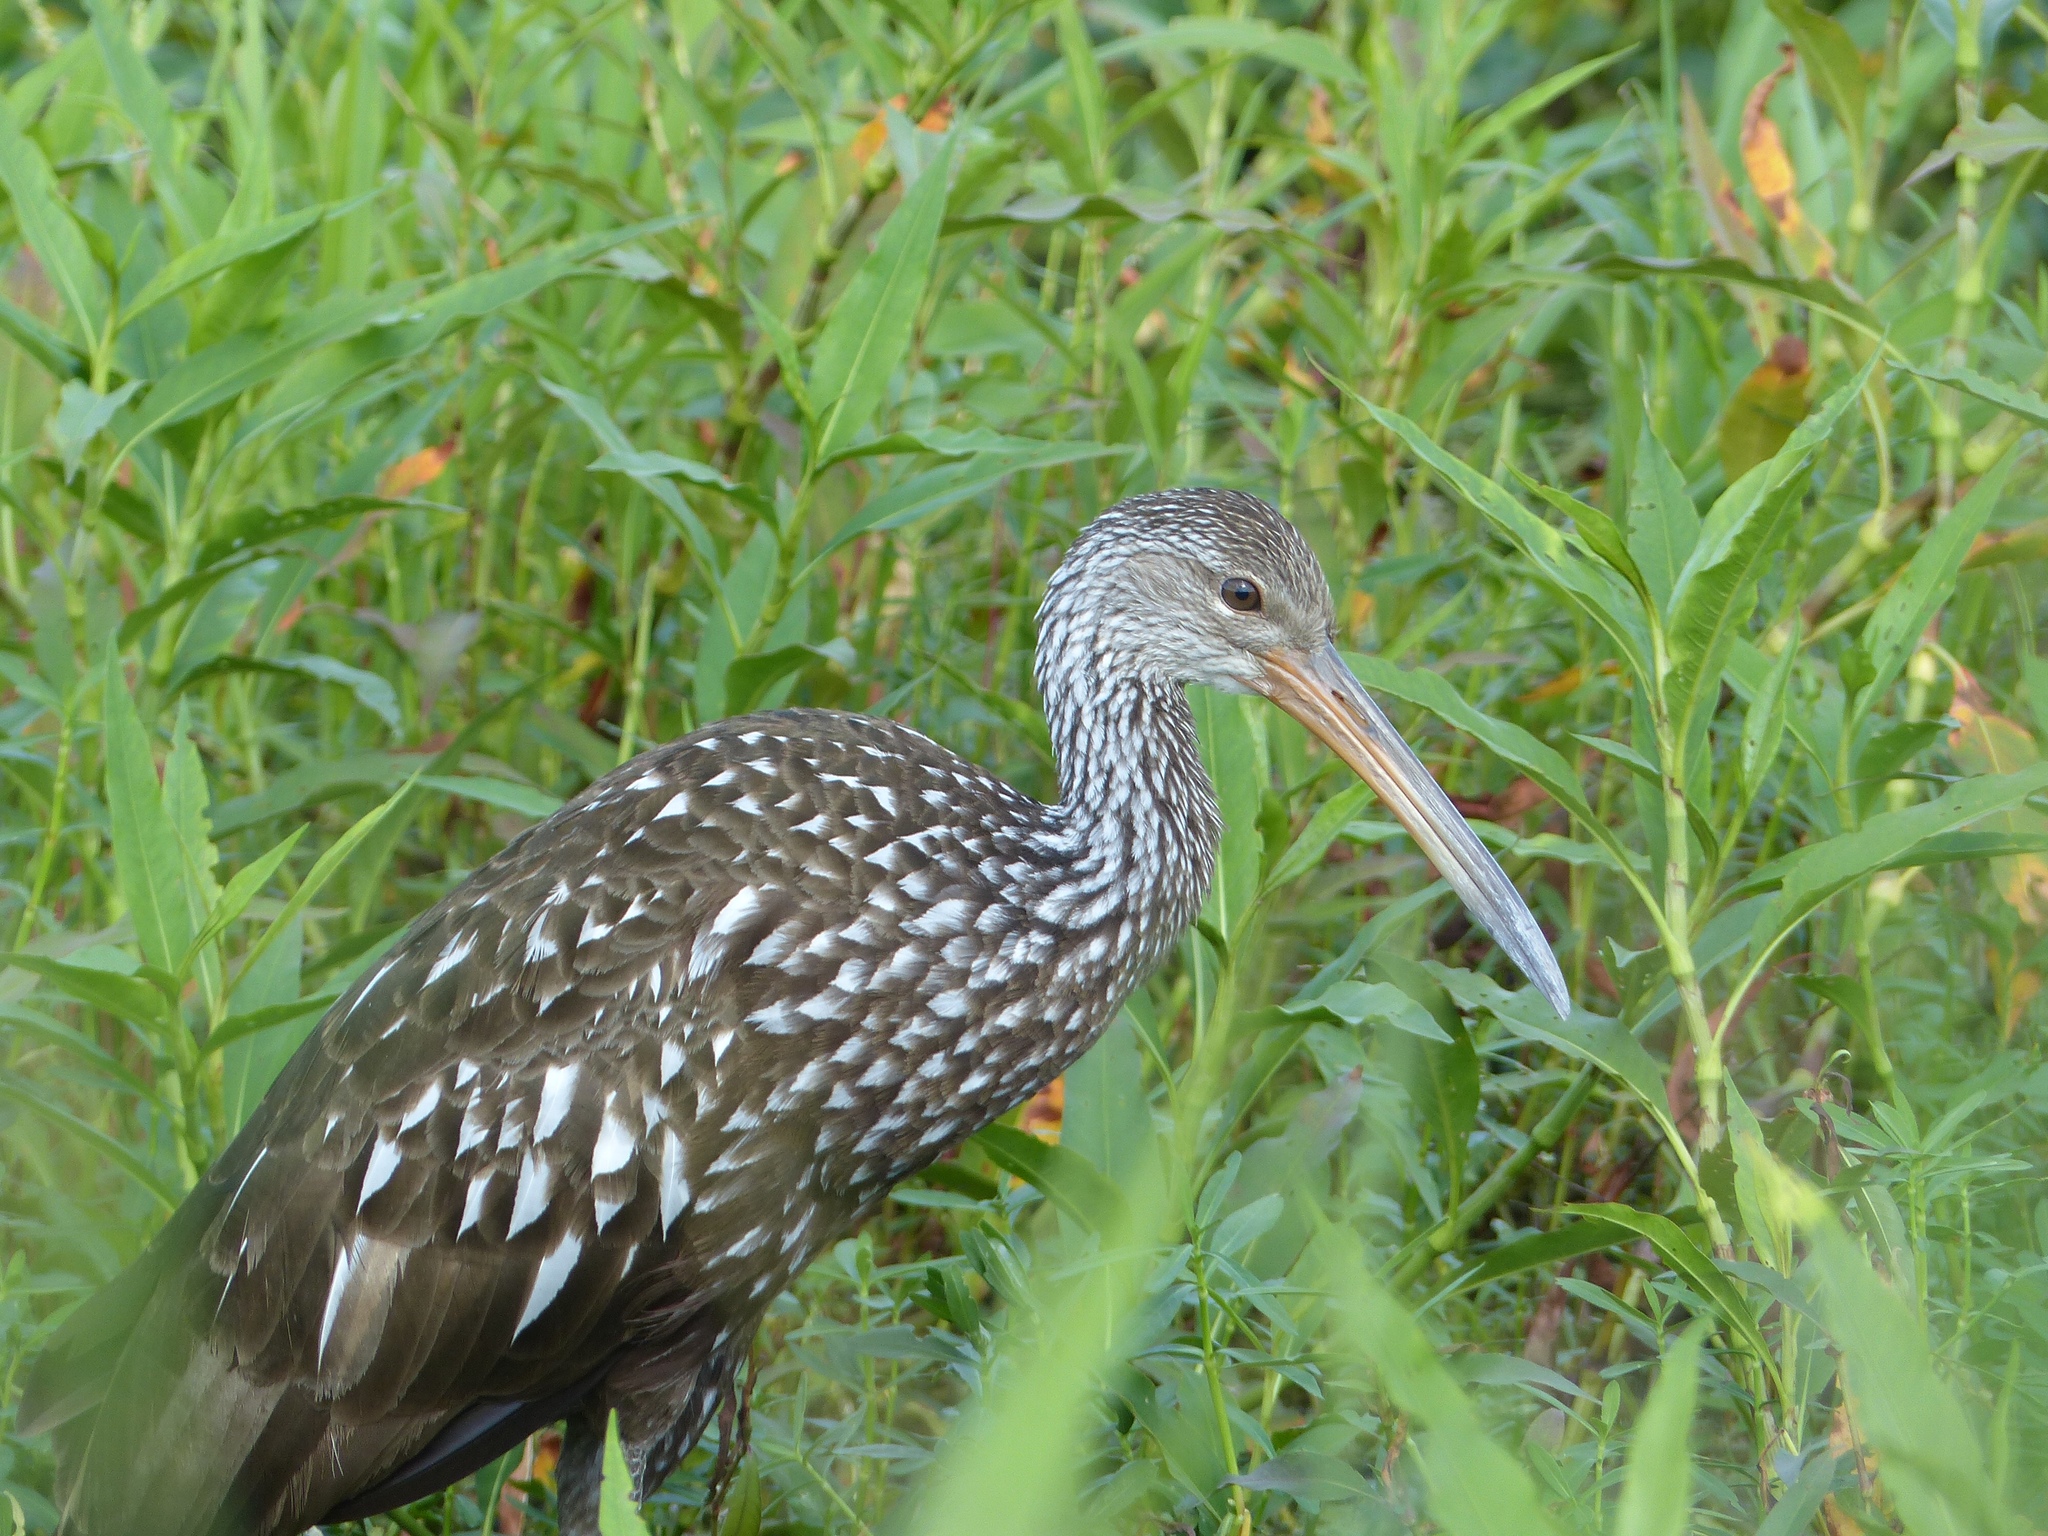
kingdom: Animalia
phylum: Chordata
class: Aves
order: Gruiformes
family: Aramidae
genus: Aramus
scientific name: Aramus guarauna
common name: Limpkin
